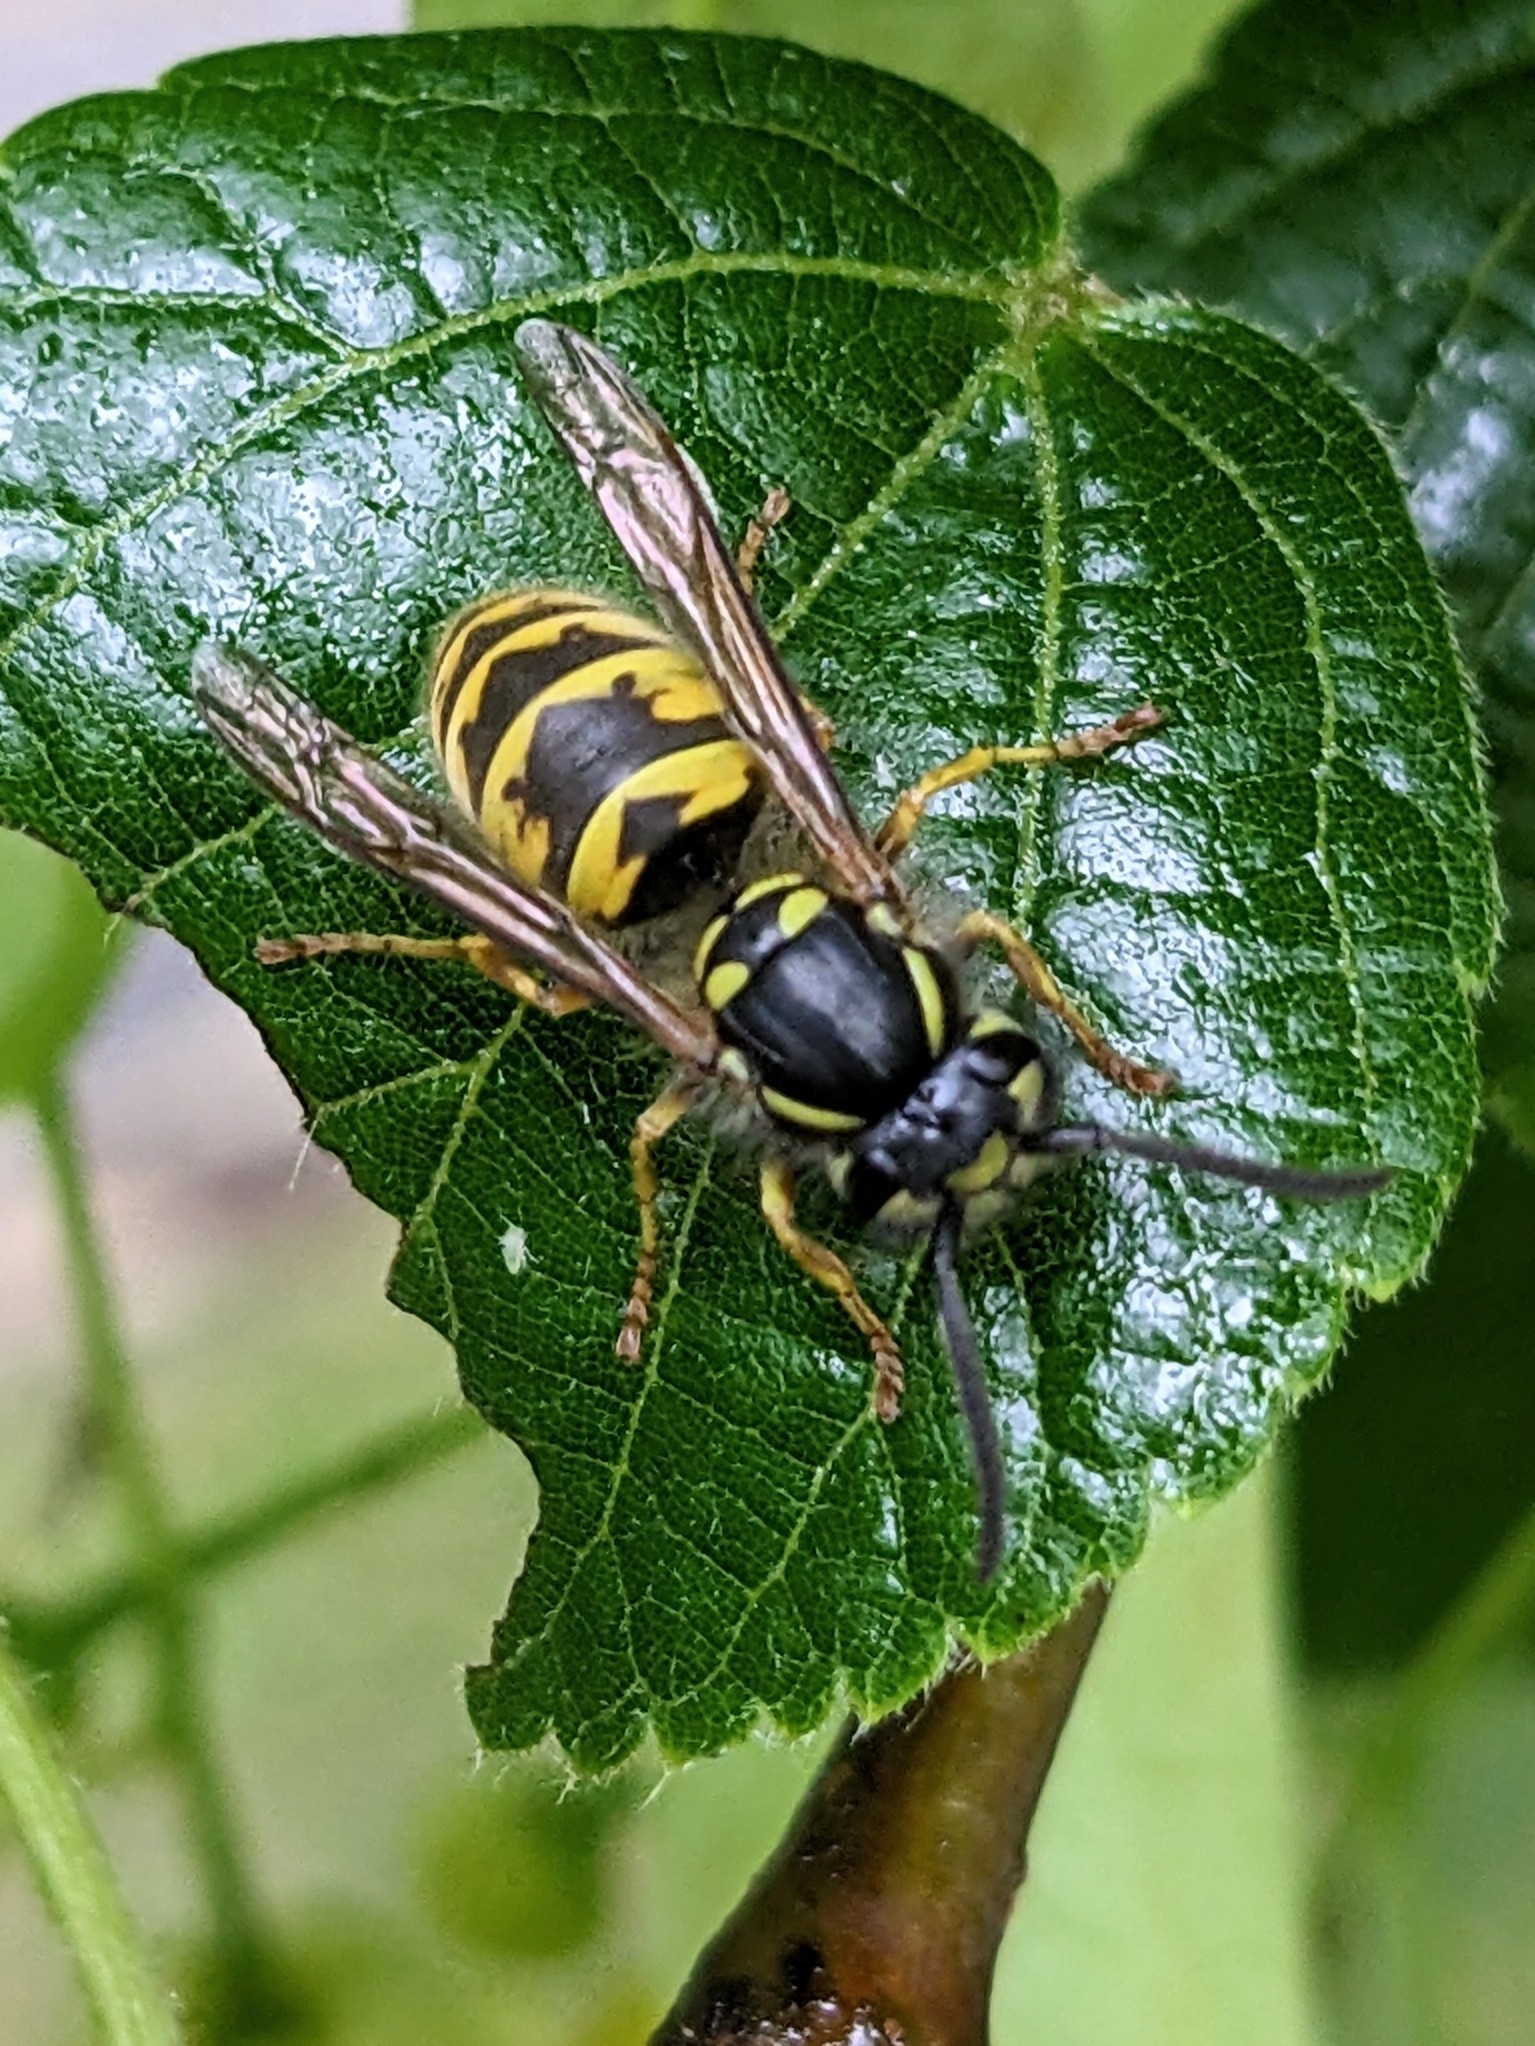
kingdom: Animalia
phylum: Arthropoda
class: Insecta
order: Hymenoptera
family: Vespidae
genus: Vespula
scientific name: Vespula vulgaris
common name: Common wasp
